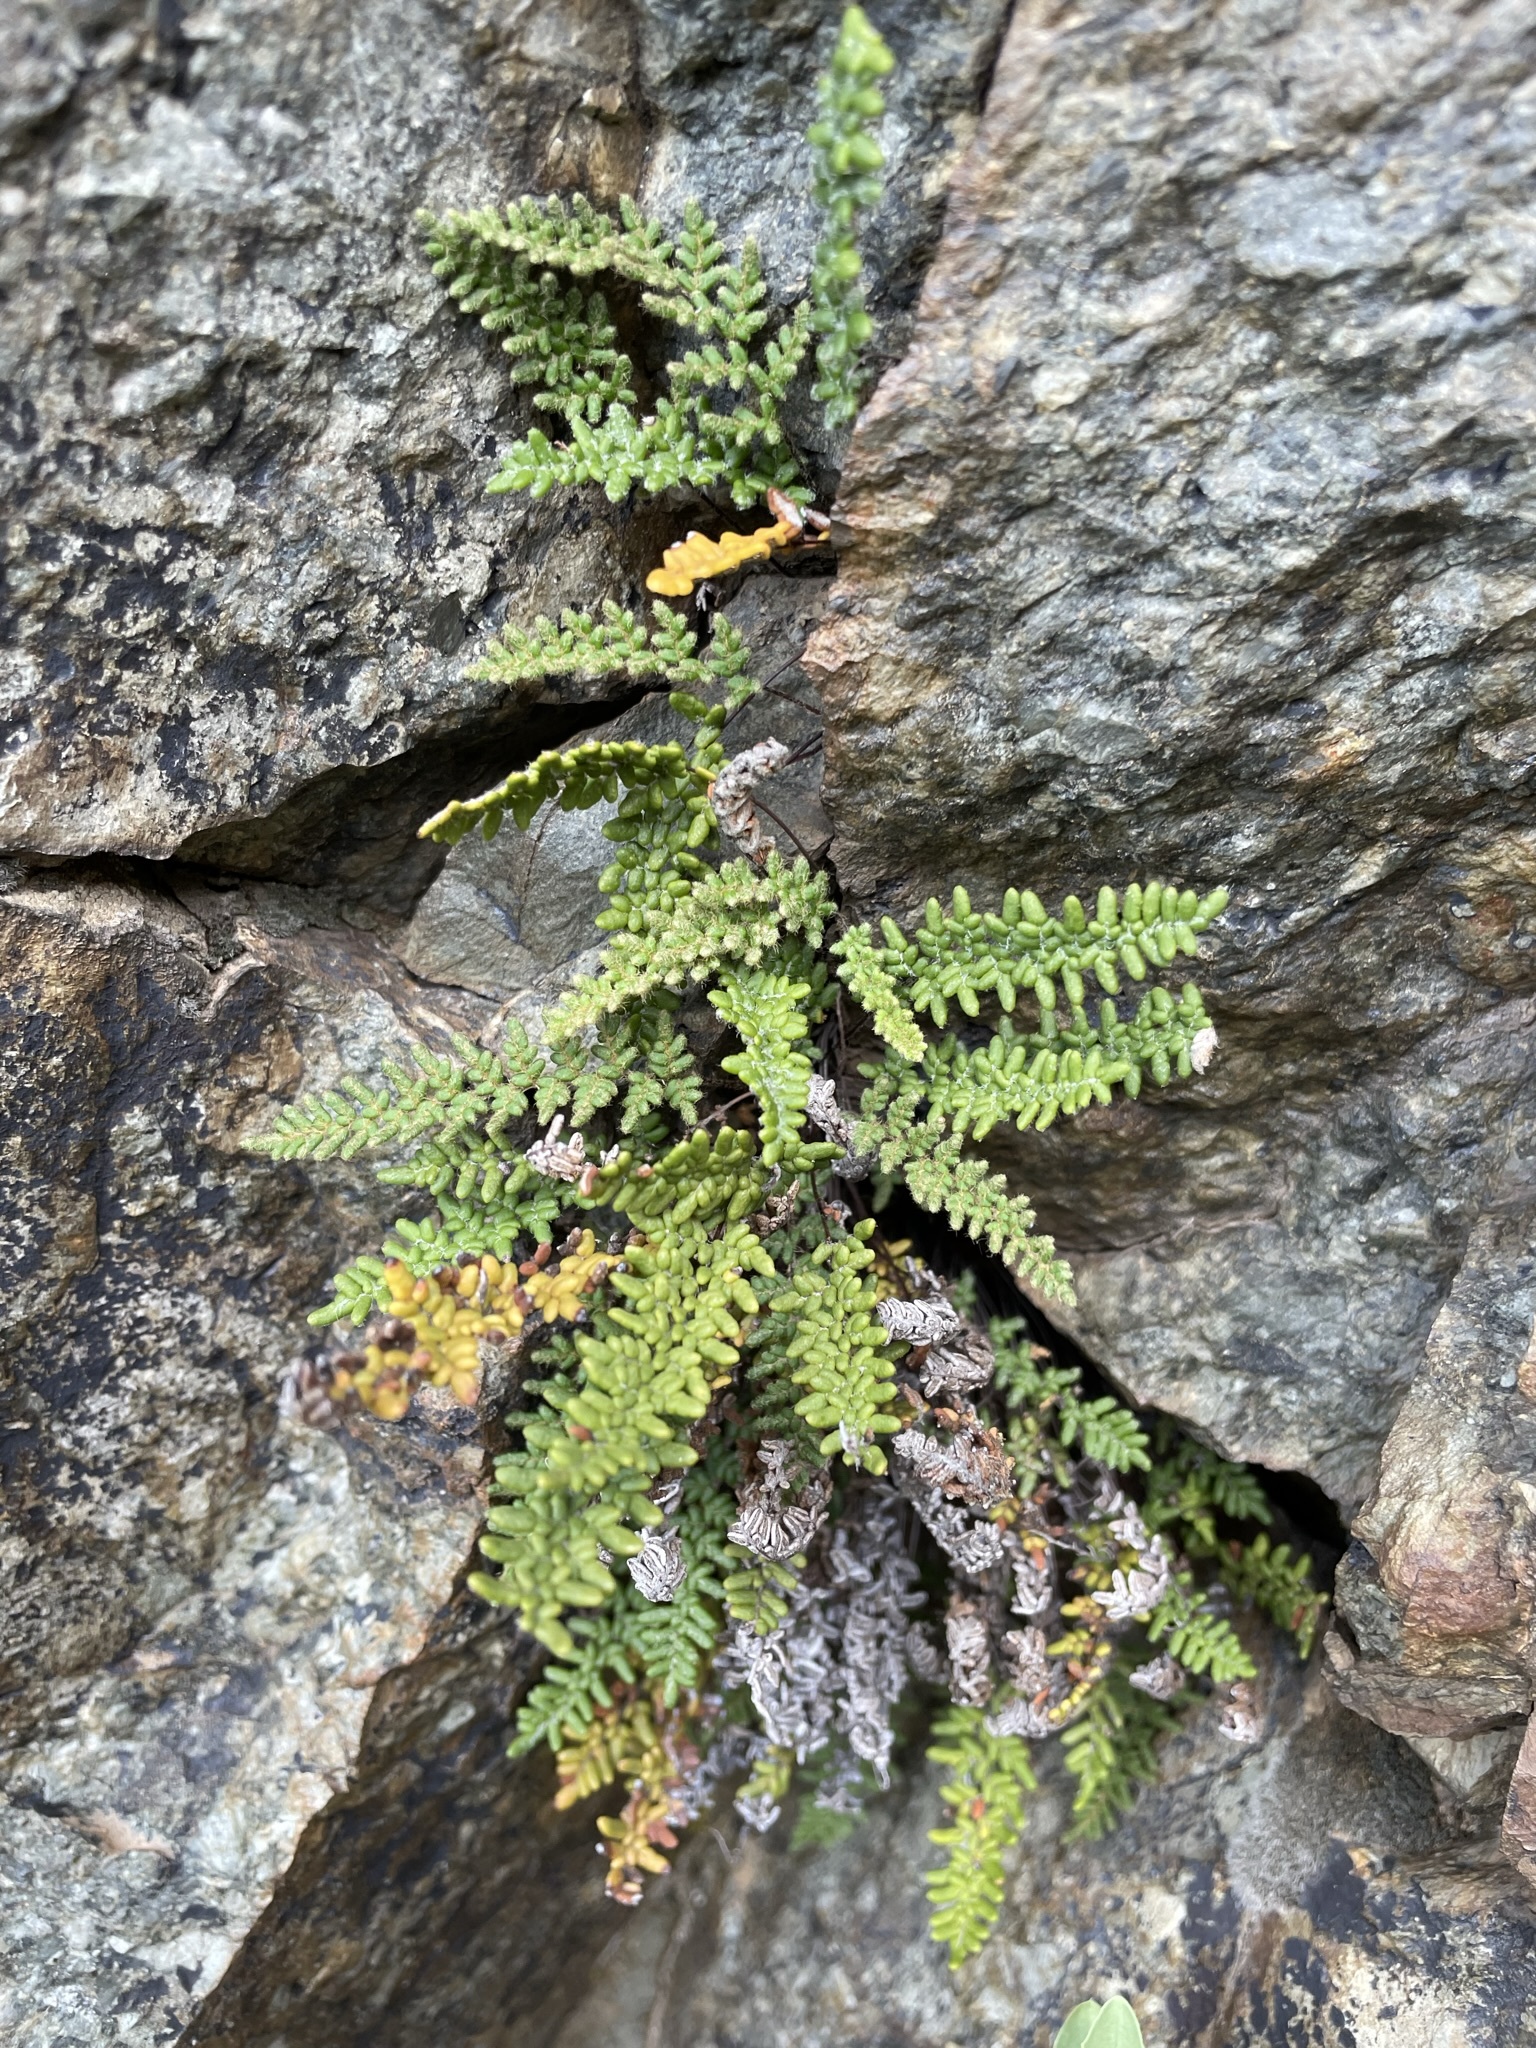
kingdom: Plantae
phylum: Tracheophyta
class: Polypodiopsida
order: Polypodiales
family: Pteridaceae
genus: Myriopteris
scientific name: Myriopteris gracillima
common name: Lace fern
